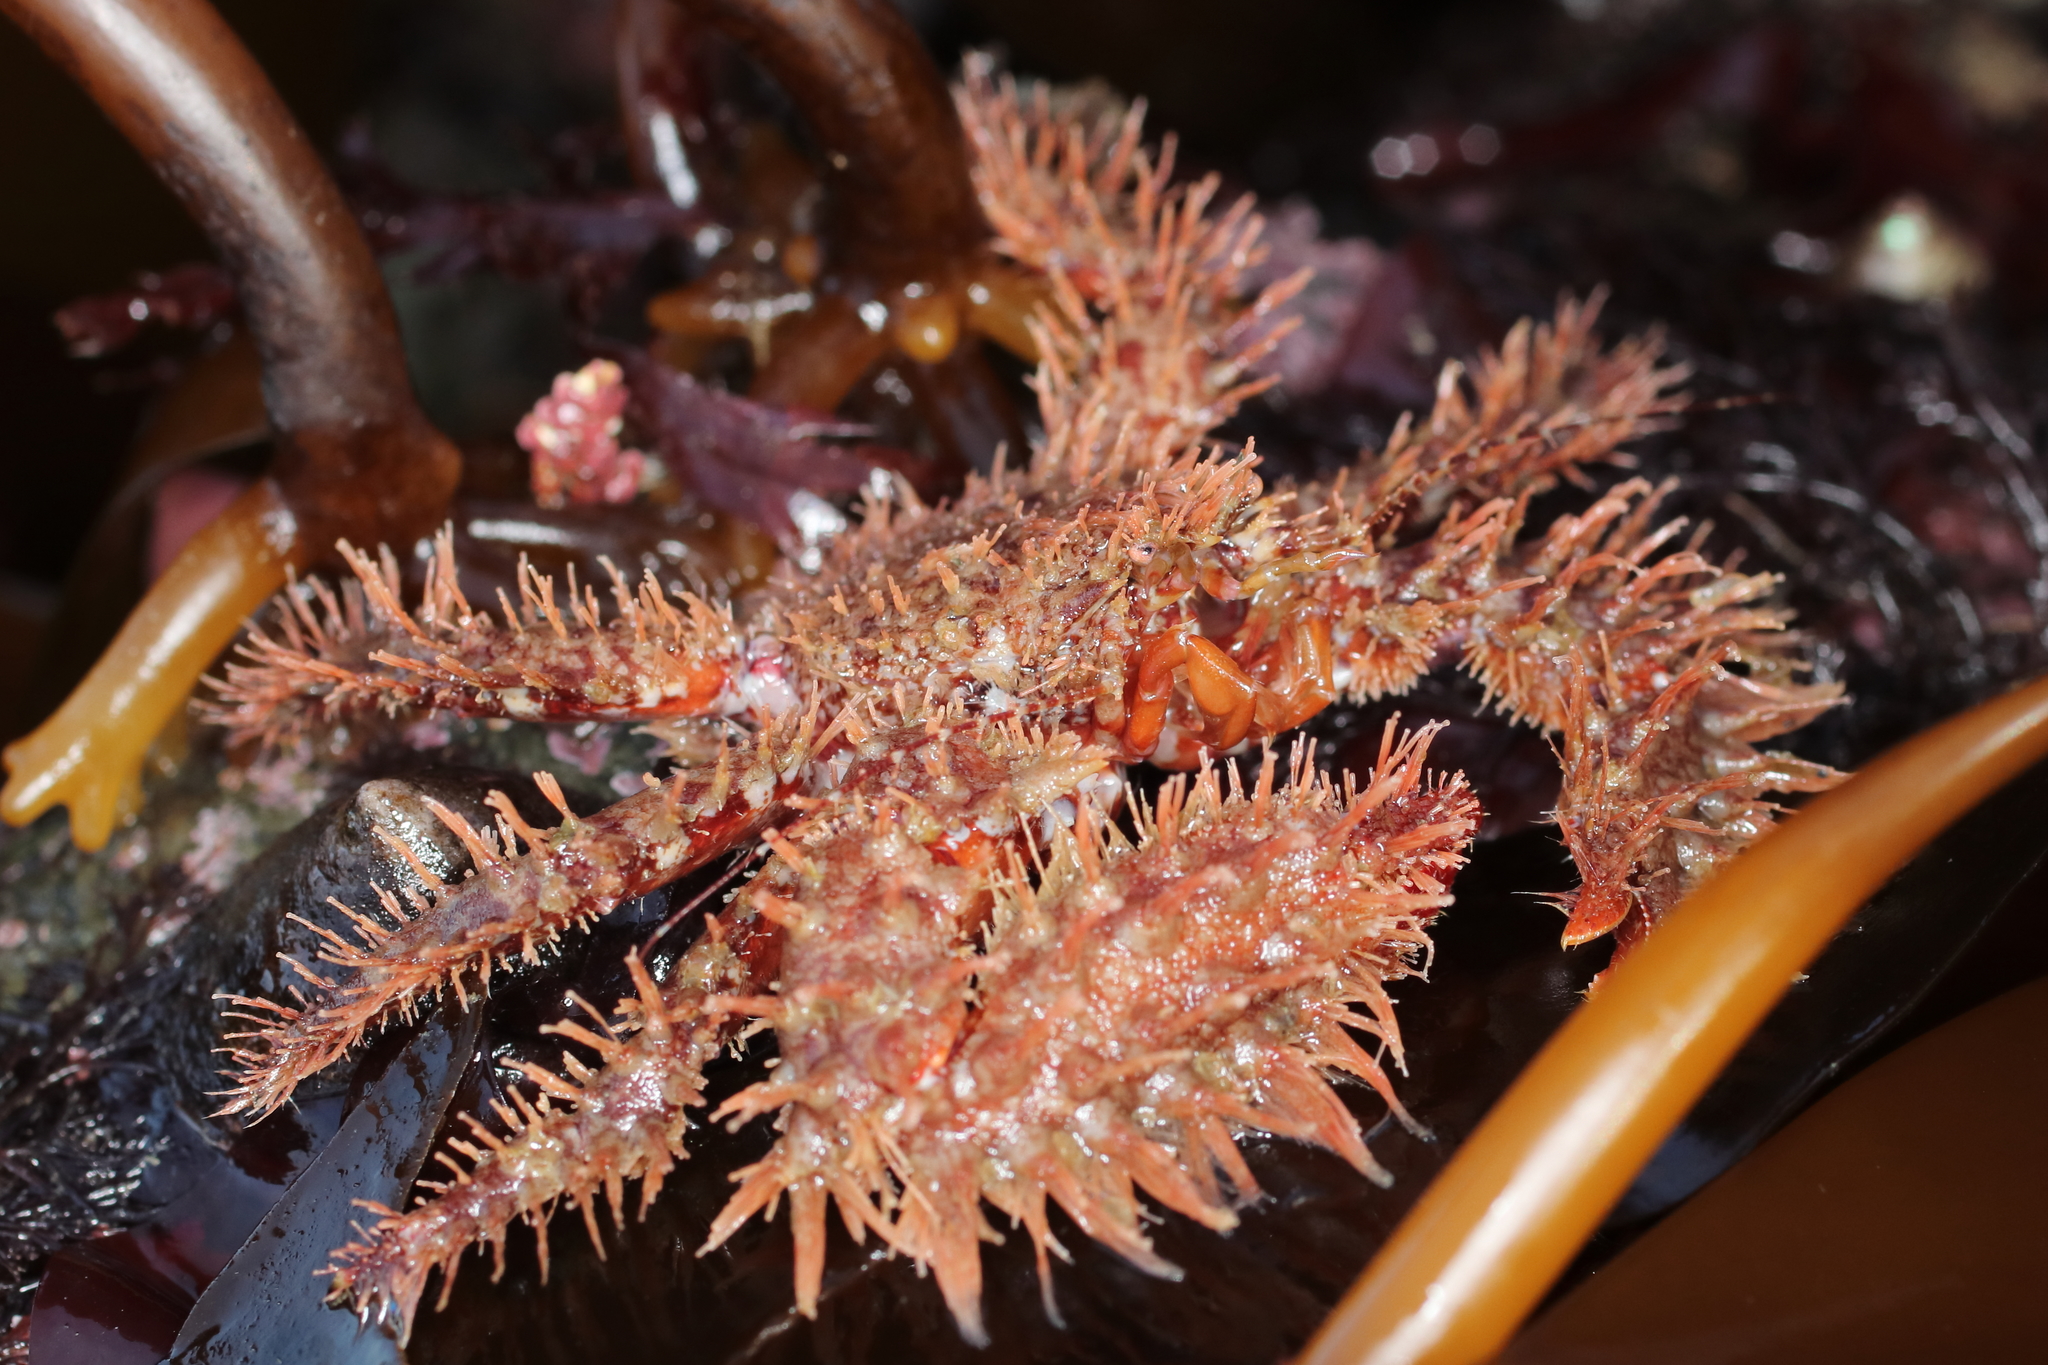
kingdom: Animalia
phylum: Arthropoda
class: Malacostraca
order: Decapoda
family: Hapalogastridae
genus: Hapalogaster
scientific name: Hapalogaster mertensii
